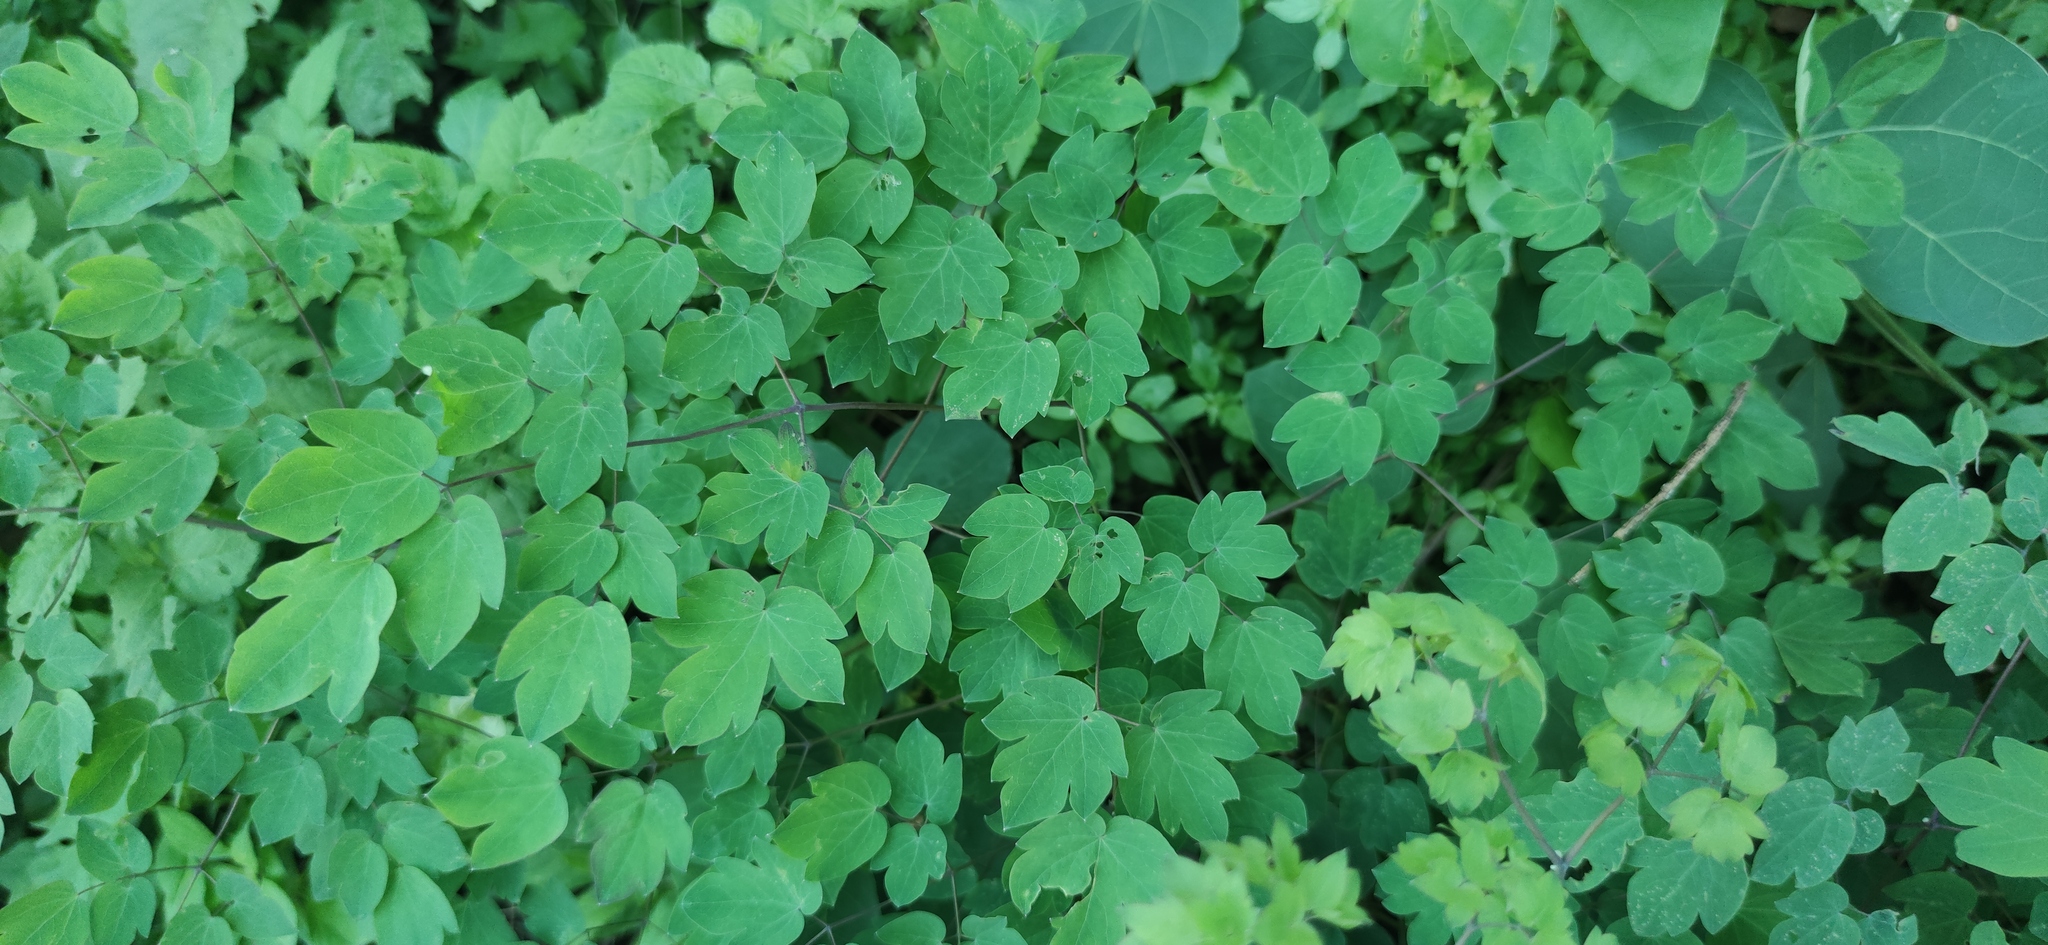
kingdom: Plantae
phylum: Tracheophyta
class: Magnoliopsida
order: Ranunculales
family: Ranunculaceae
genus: Thalictrum
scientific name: Thalictrum fendleri
